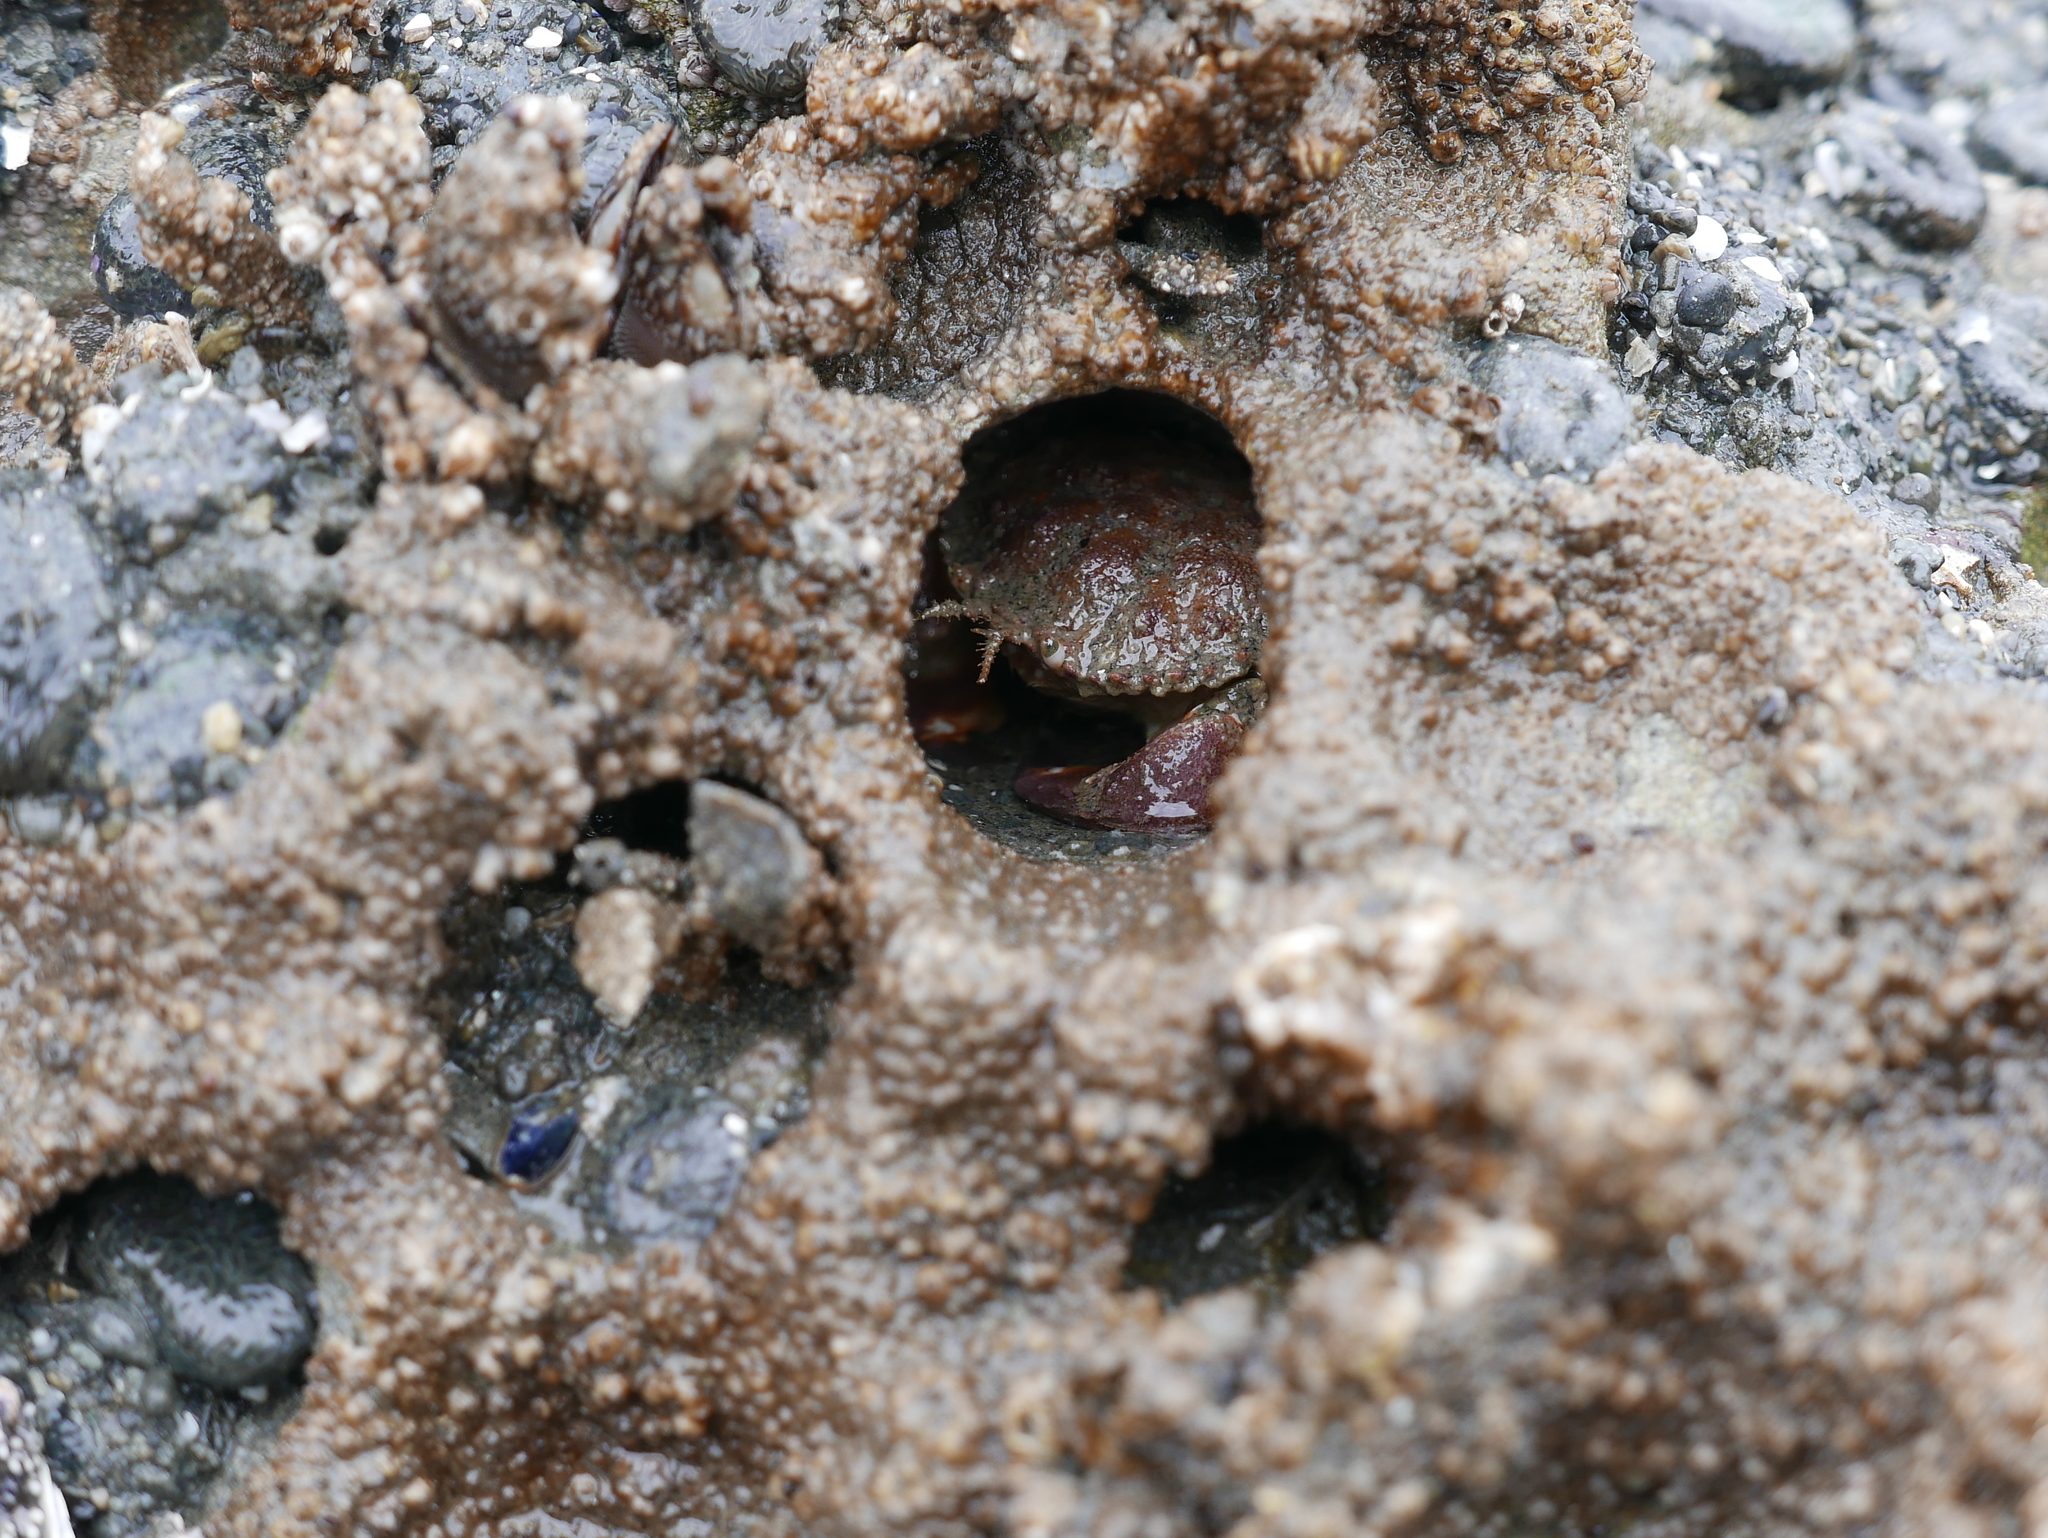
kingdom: Animalia
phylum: Arthropoda
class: Malacostraca
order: Decapoda
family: Cancridae
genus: Glebocarcinus
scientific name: Glebocarcinus oregonensis
